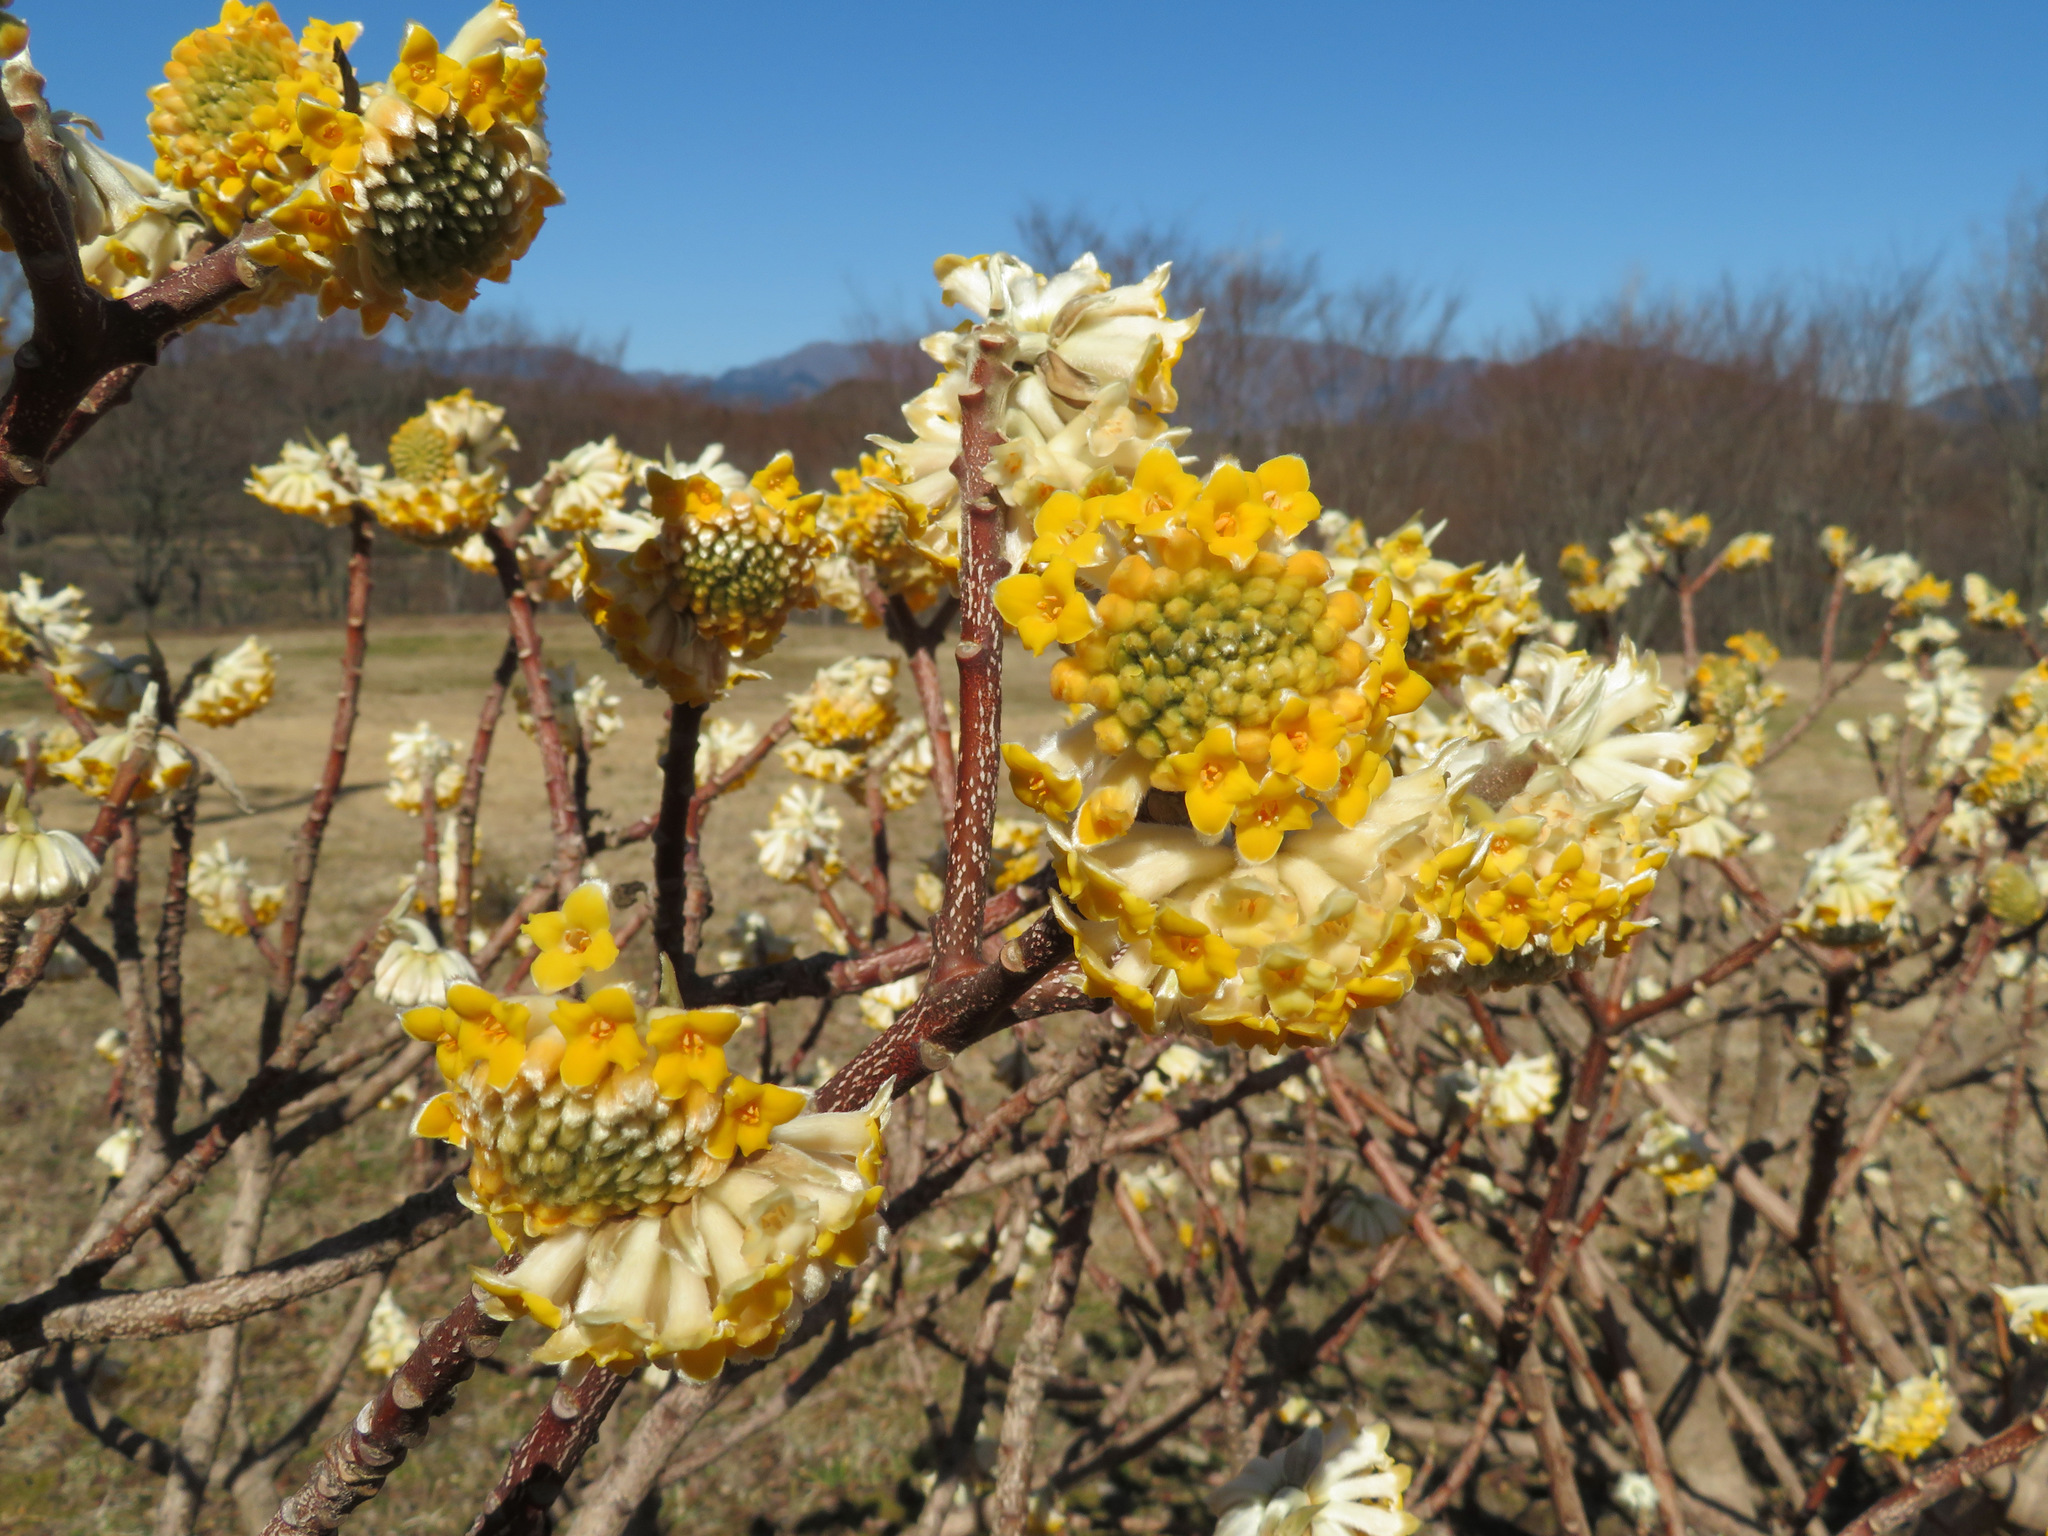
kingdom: Plantae
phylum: Tracheophyta
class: Magnoliopsida
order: Malvales
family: Thymelaeaceae
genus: Edgeworthia
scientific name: Edgeworthia chrysantha
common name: Oriental paperbush
